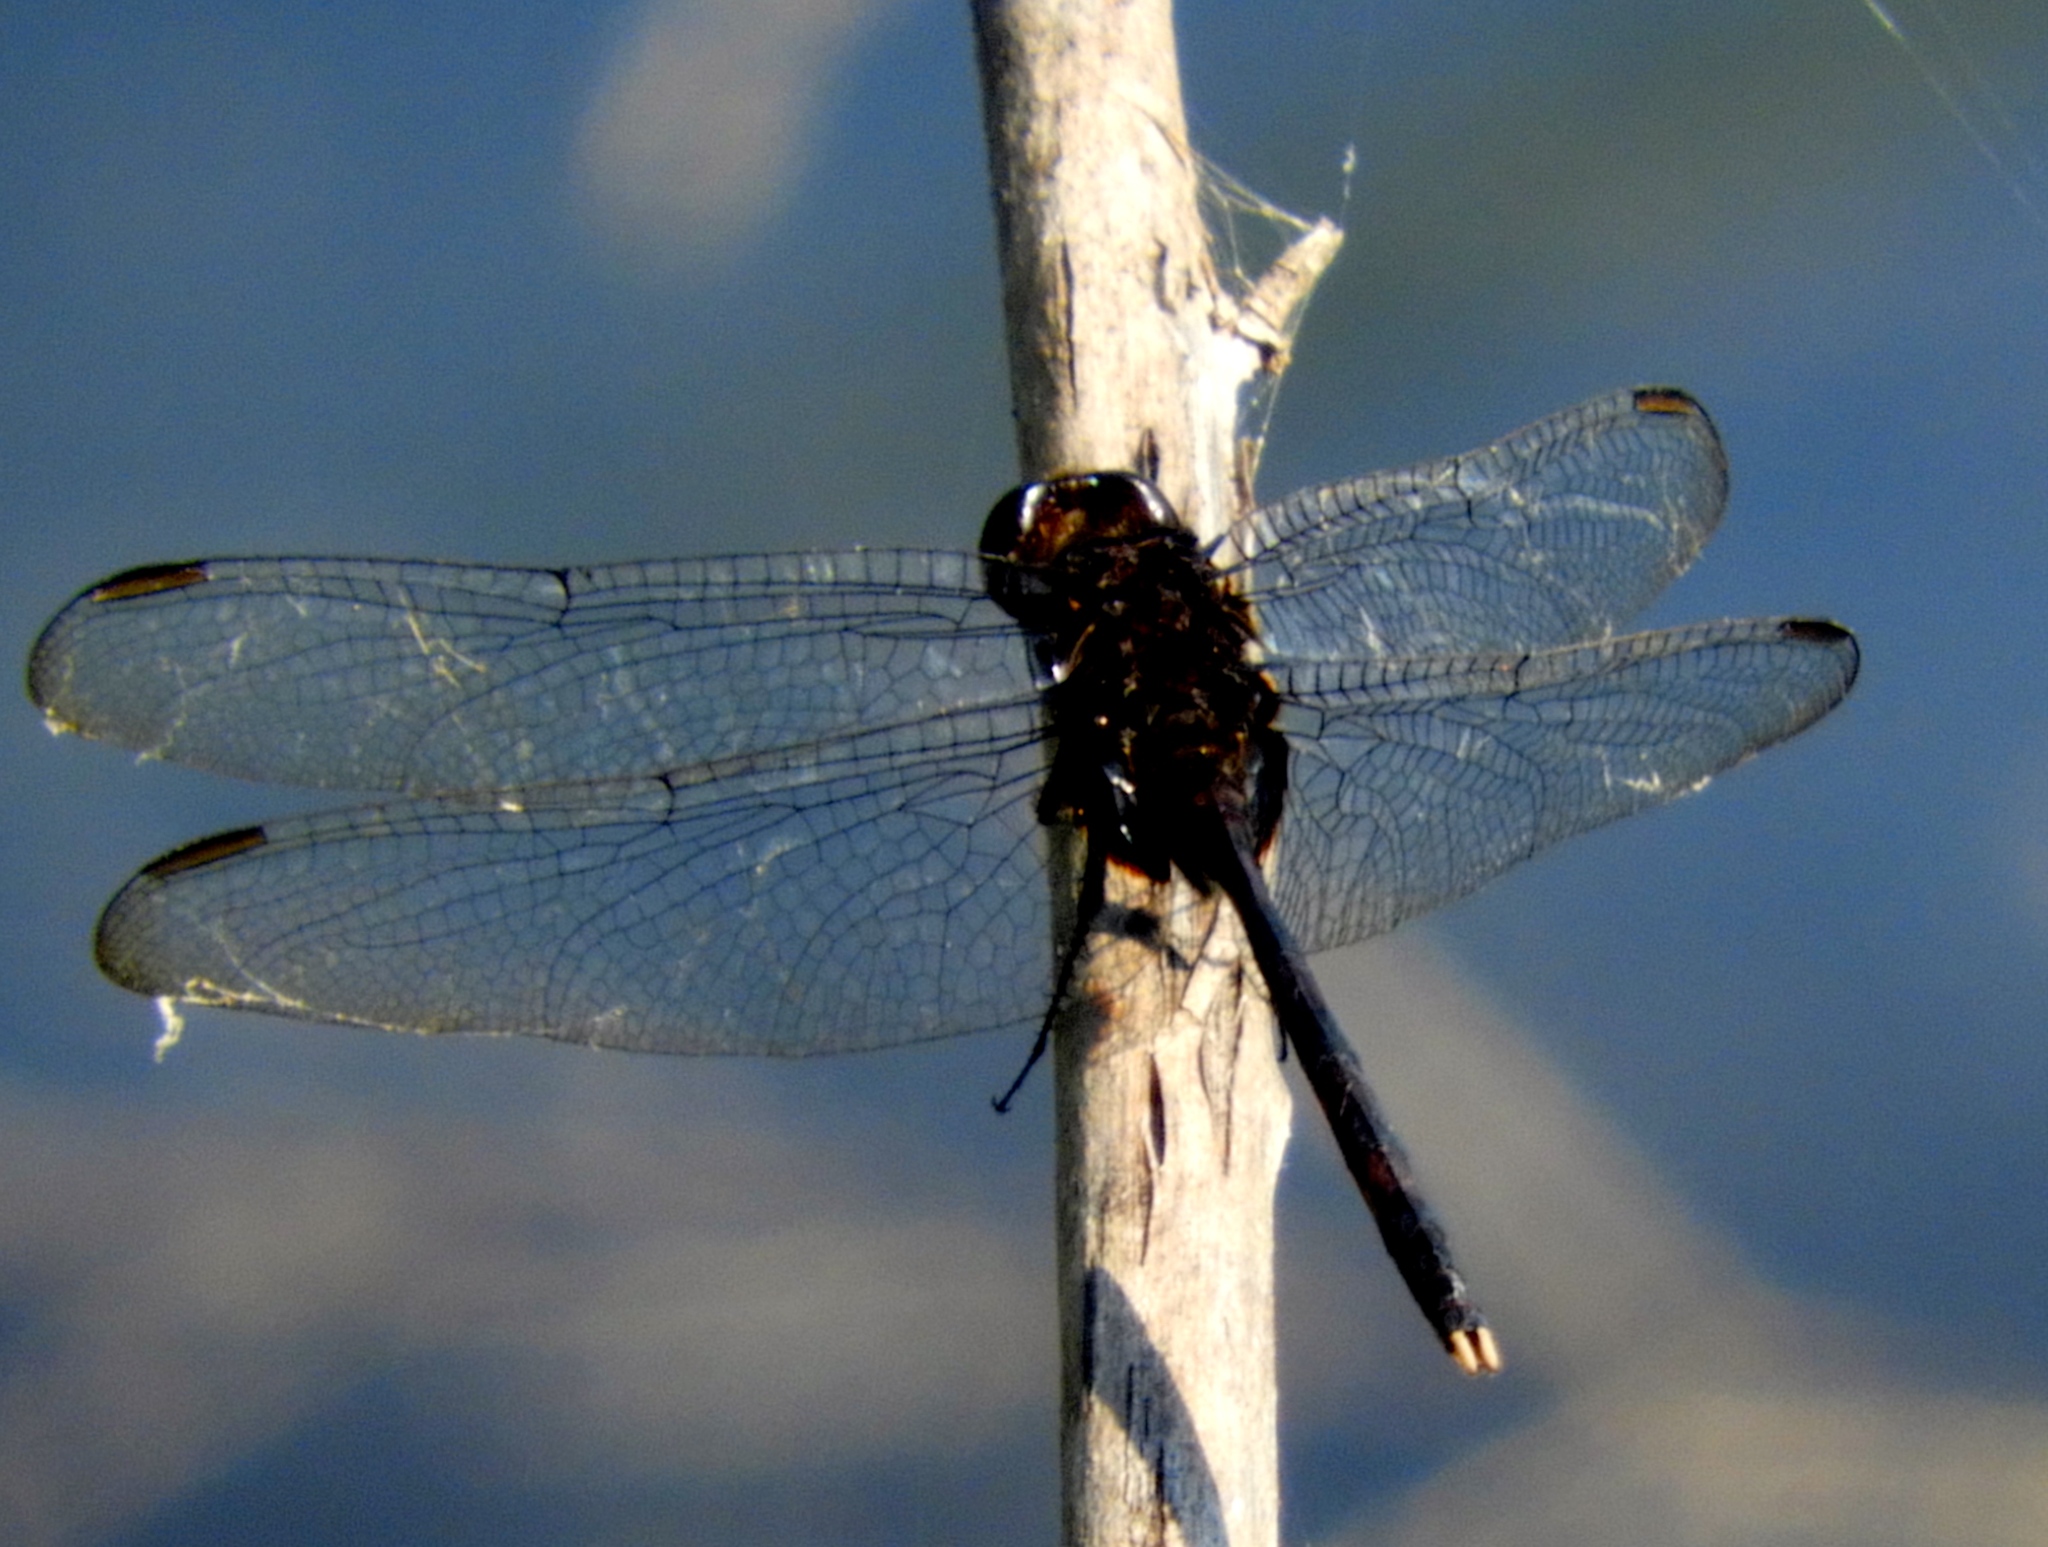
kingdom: Animalia
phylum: Arthropoda
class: Insecta
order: Odonata
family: Libellulidae
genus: Erythemis
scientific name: Erythemis plebeja
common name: Pin-tailed pondhawk
